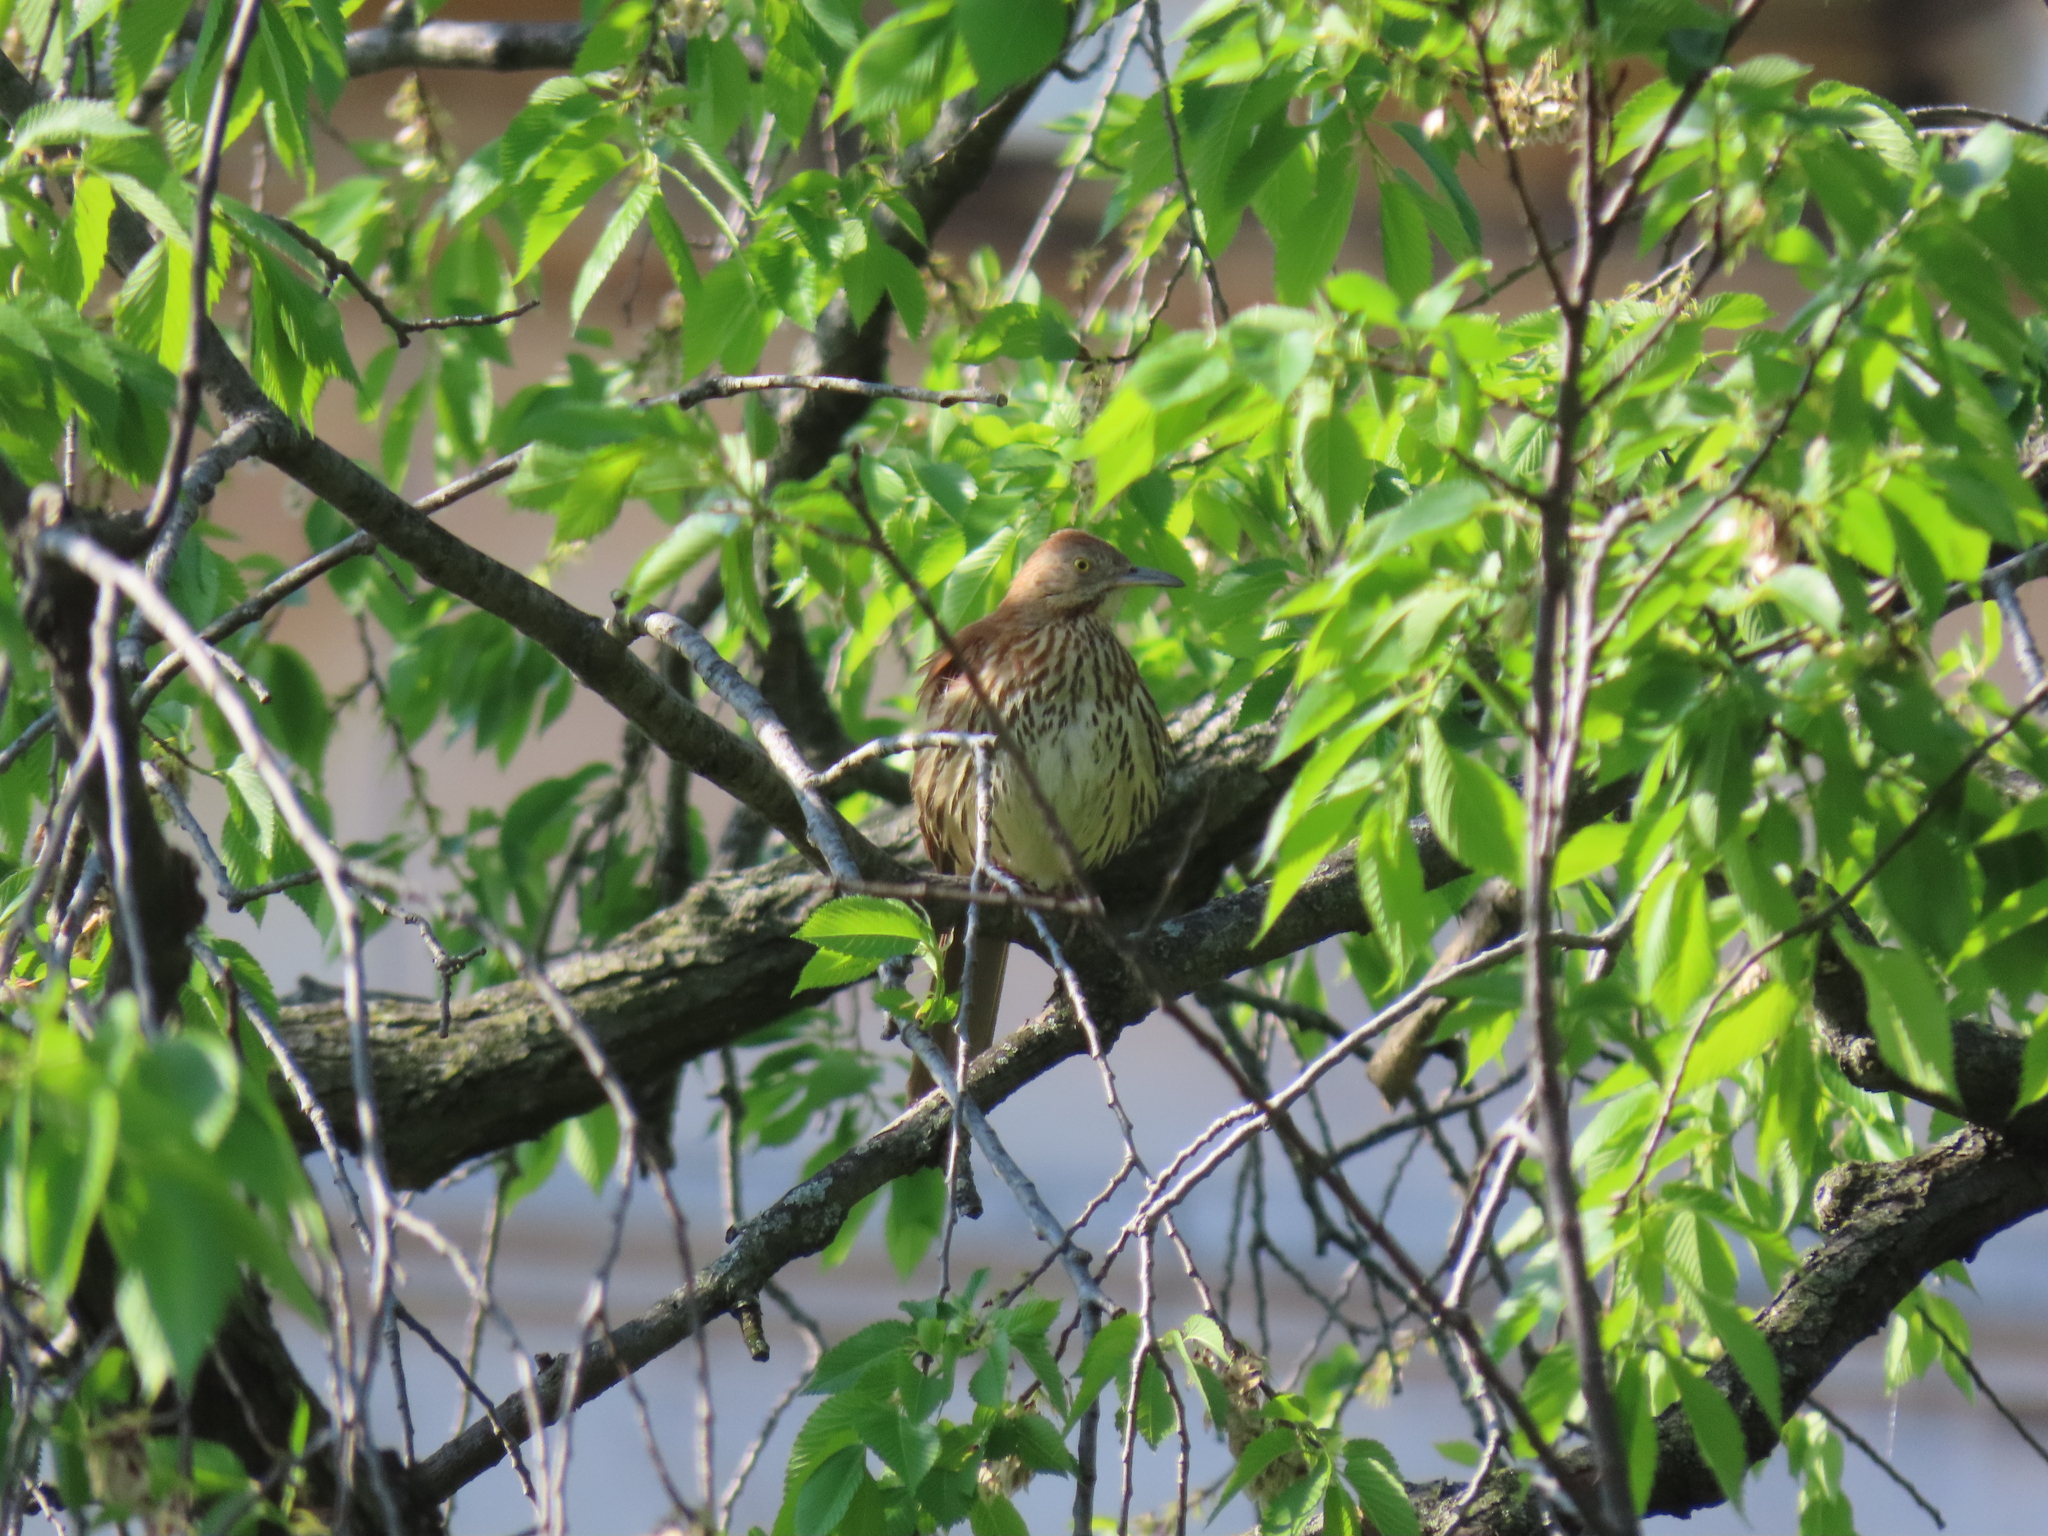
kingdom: Animalia
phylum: Chordata
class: Aves
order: Passeriformes
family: Mimidae
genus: Toxostoma
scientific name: Toxostoma rufum
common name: Brown thrasher
